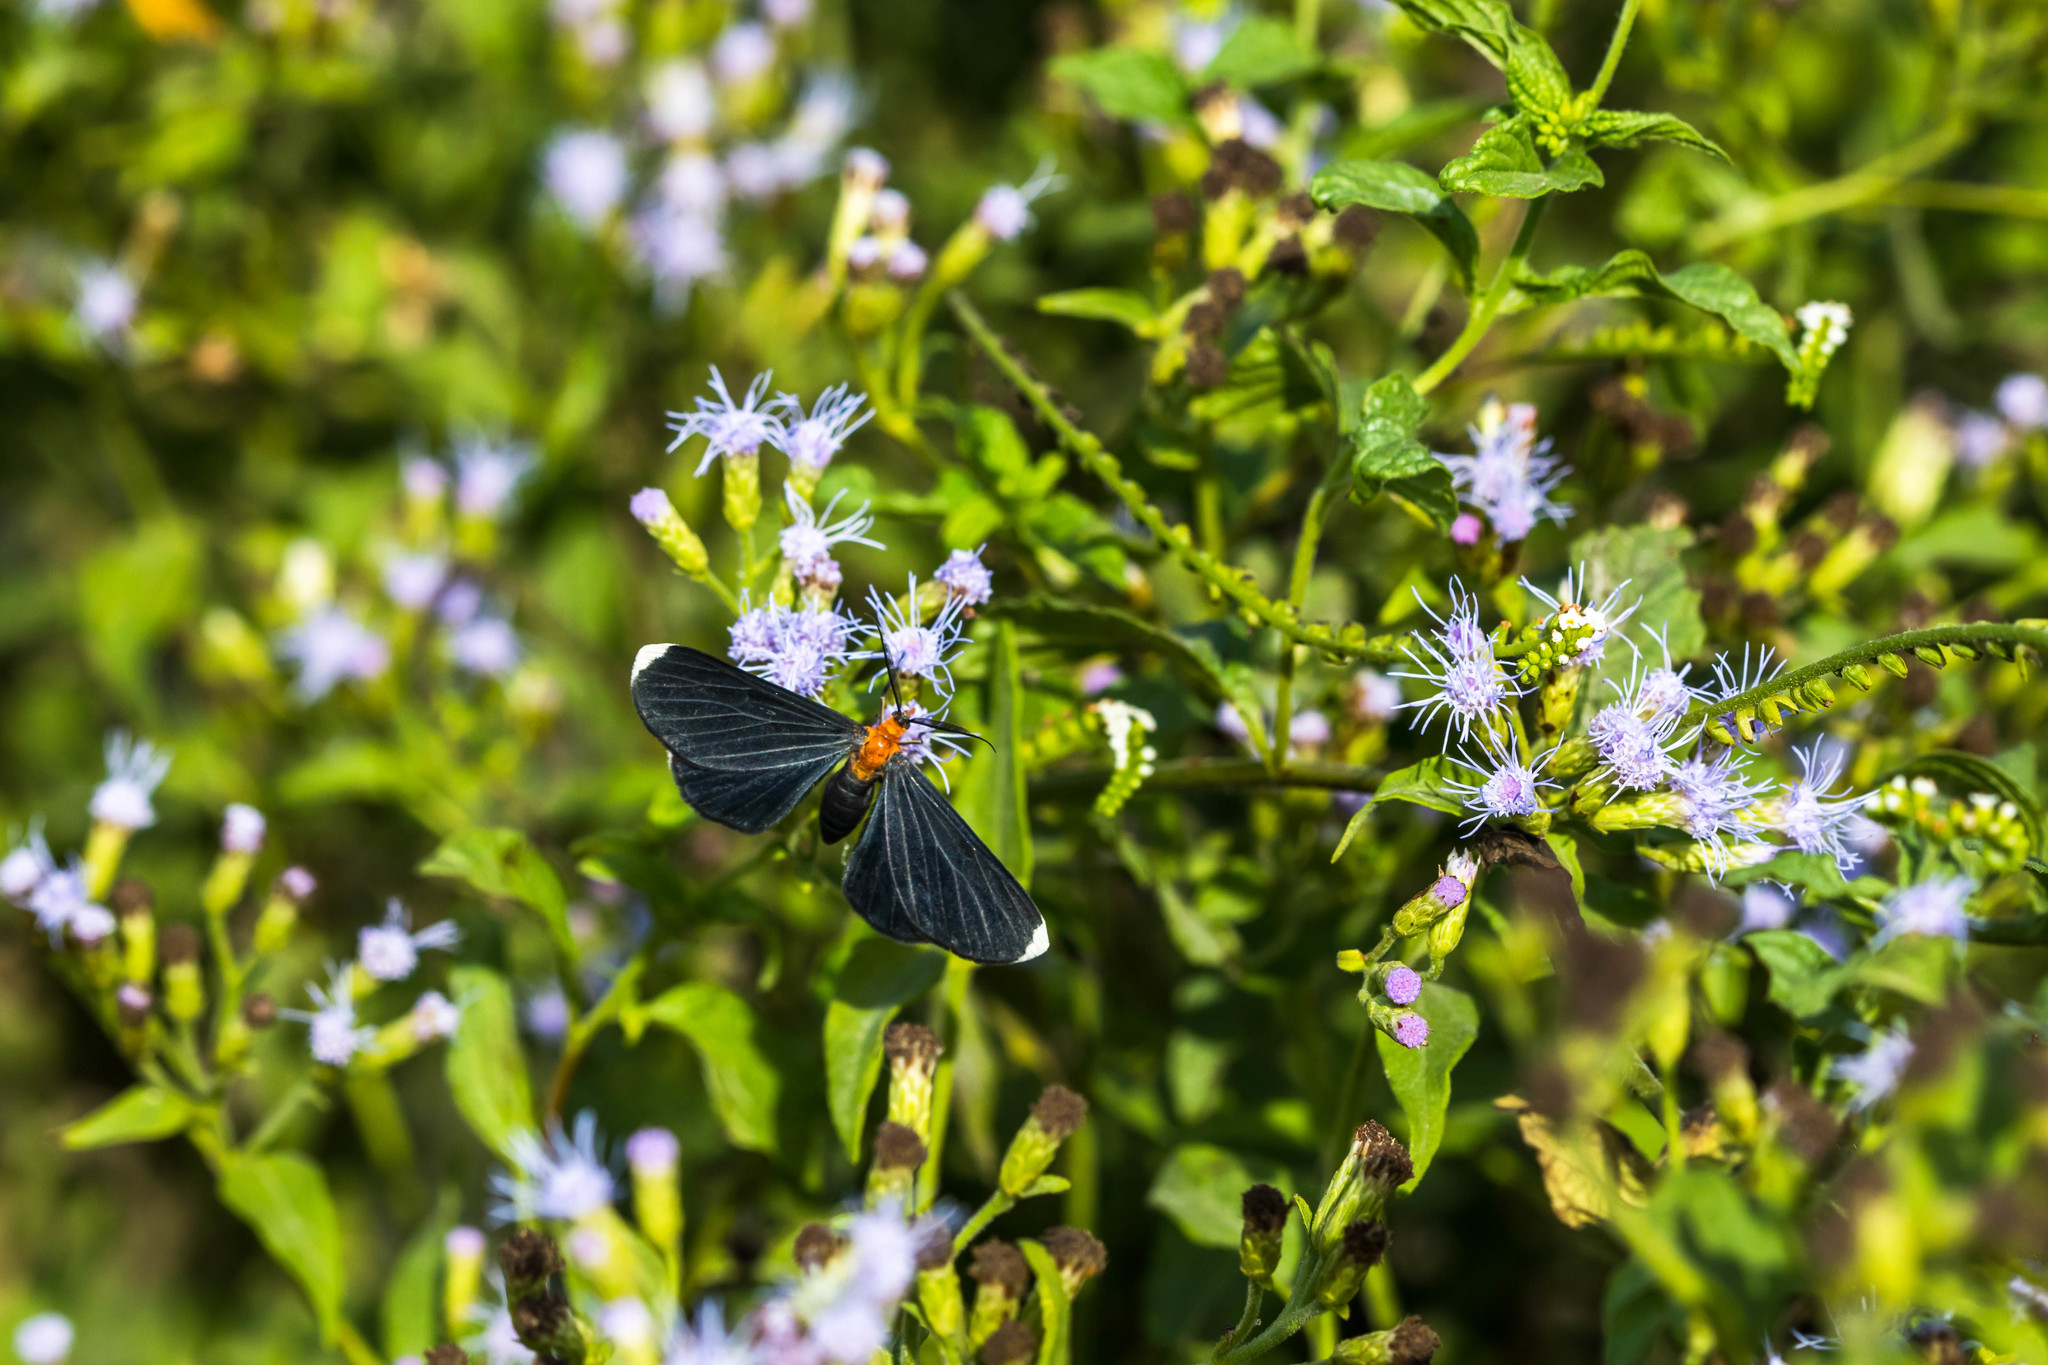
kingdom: Animalia
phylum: Arthropoda
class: Insecta
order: Lepidoptera
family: Geometridae
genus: Melanchroia
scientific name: Melanchroia chephise
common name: White-tipped black
